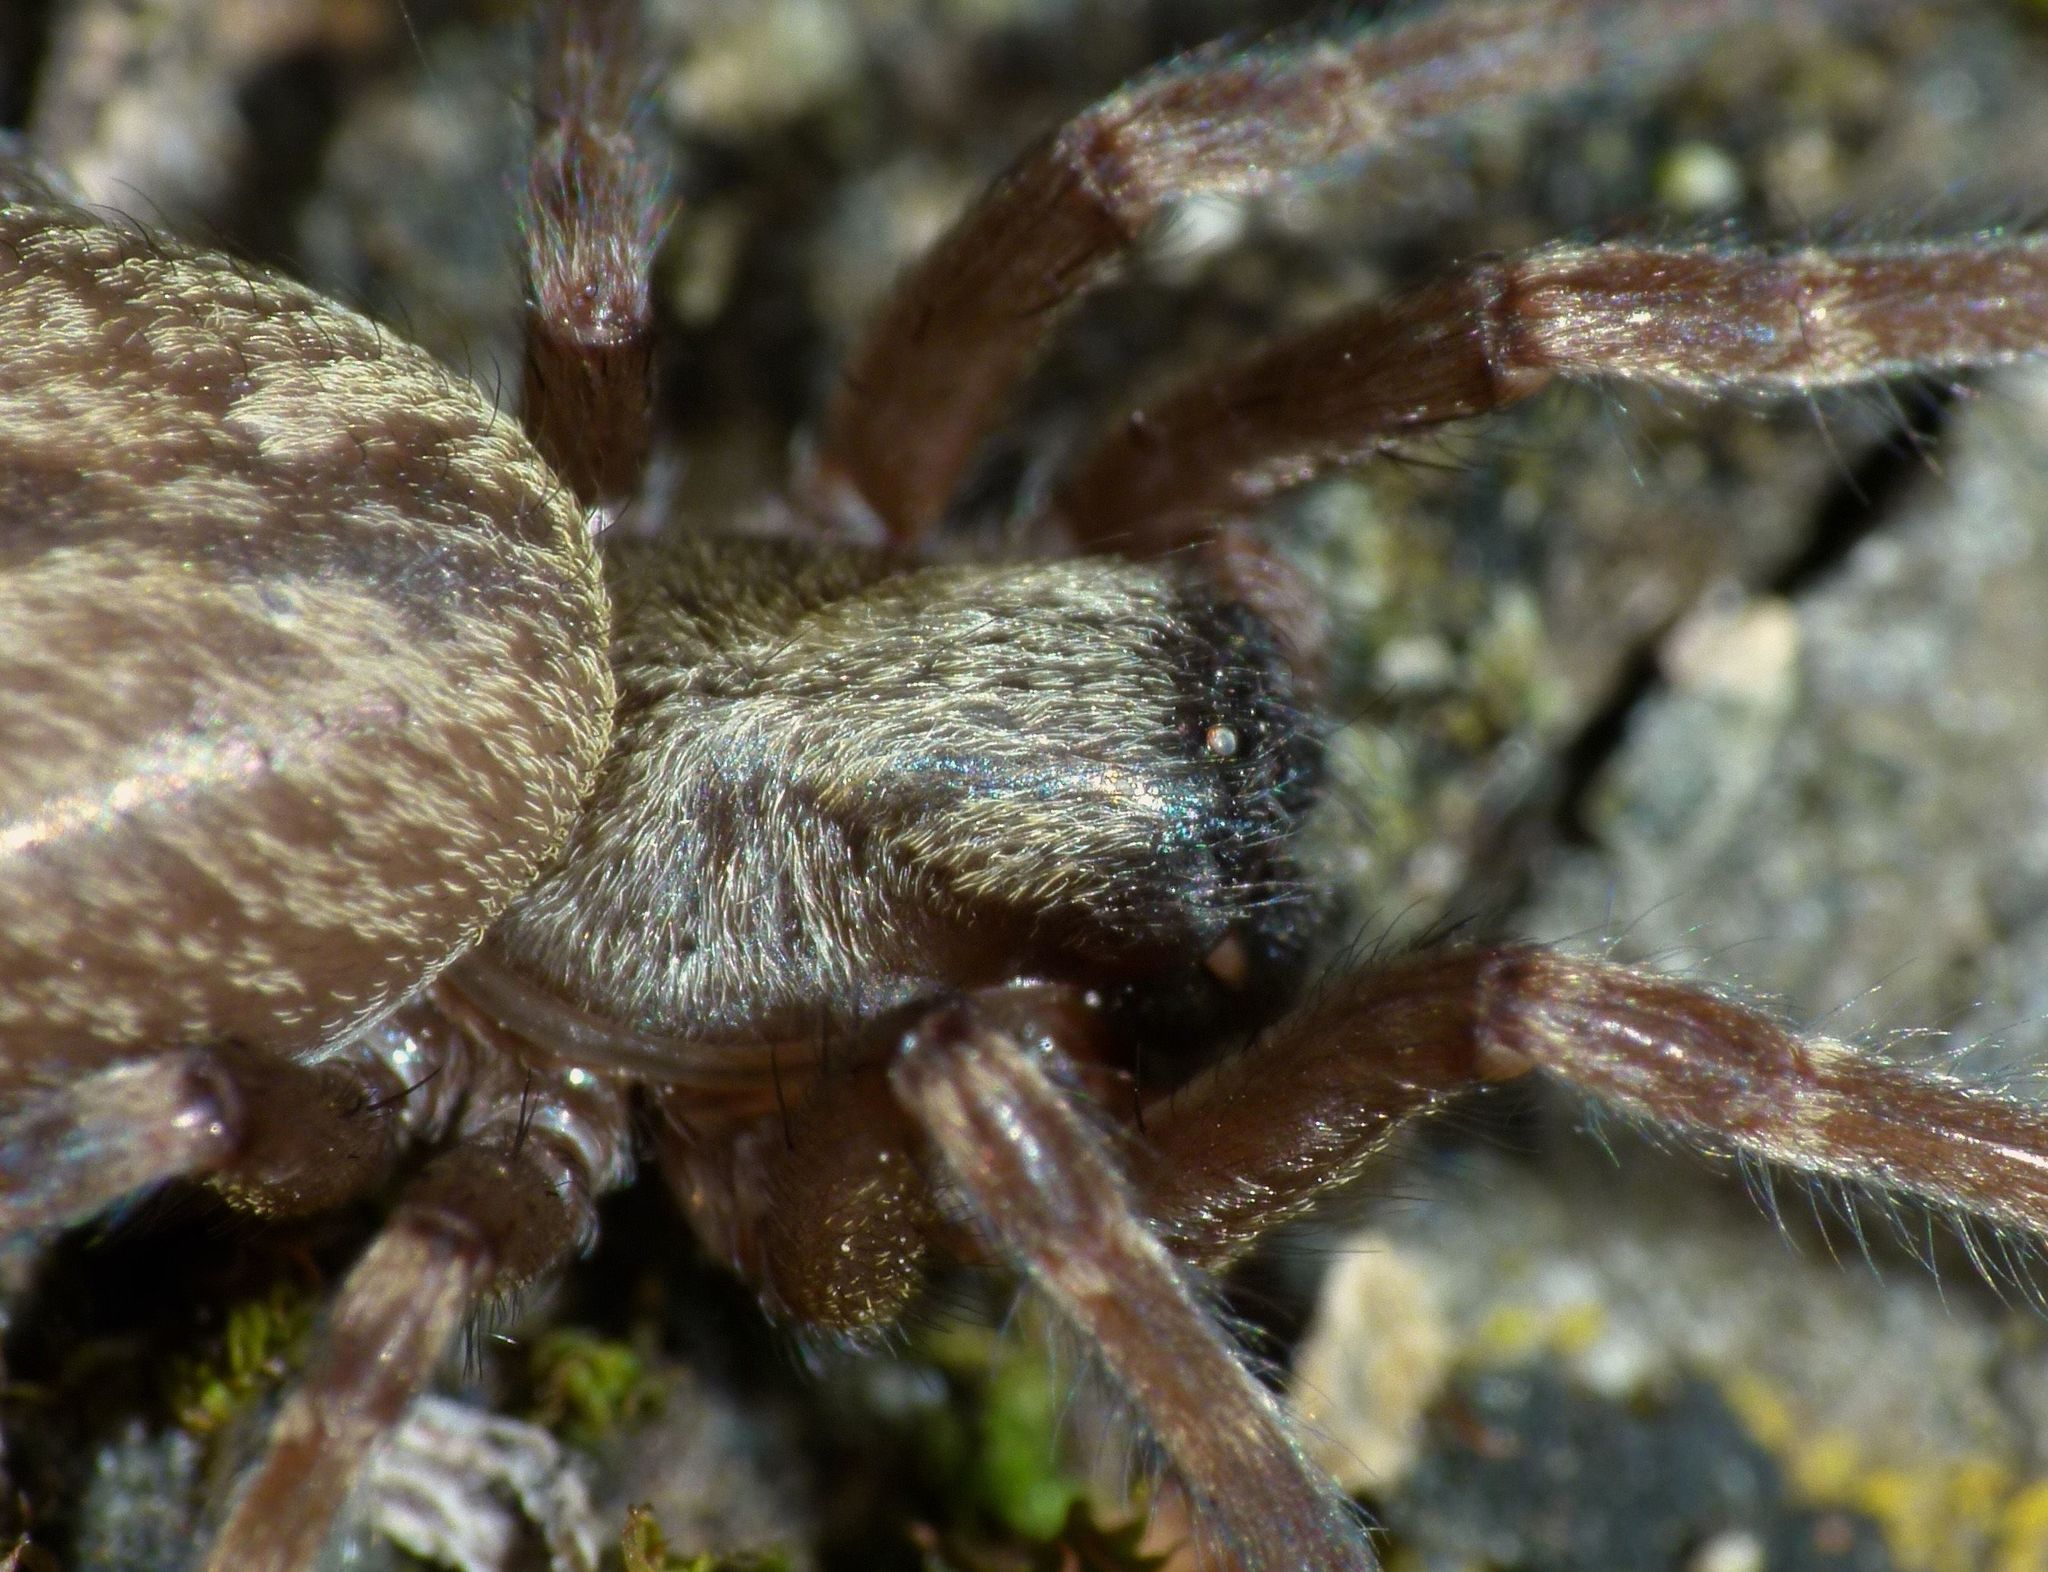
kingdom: Animalia
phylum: Arthropoda
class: Arachnida
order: Araneae
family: Desidae
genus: Badumna
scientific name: Badumna longinqua
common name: Gray house spider
